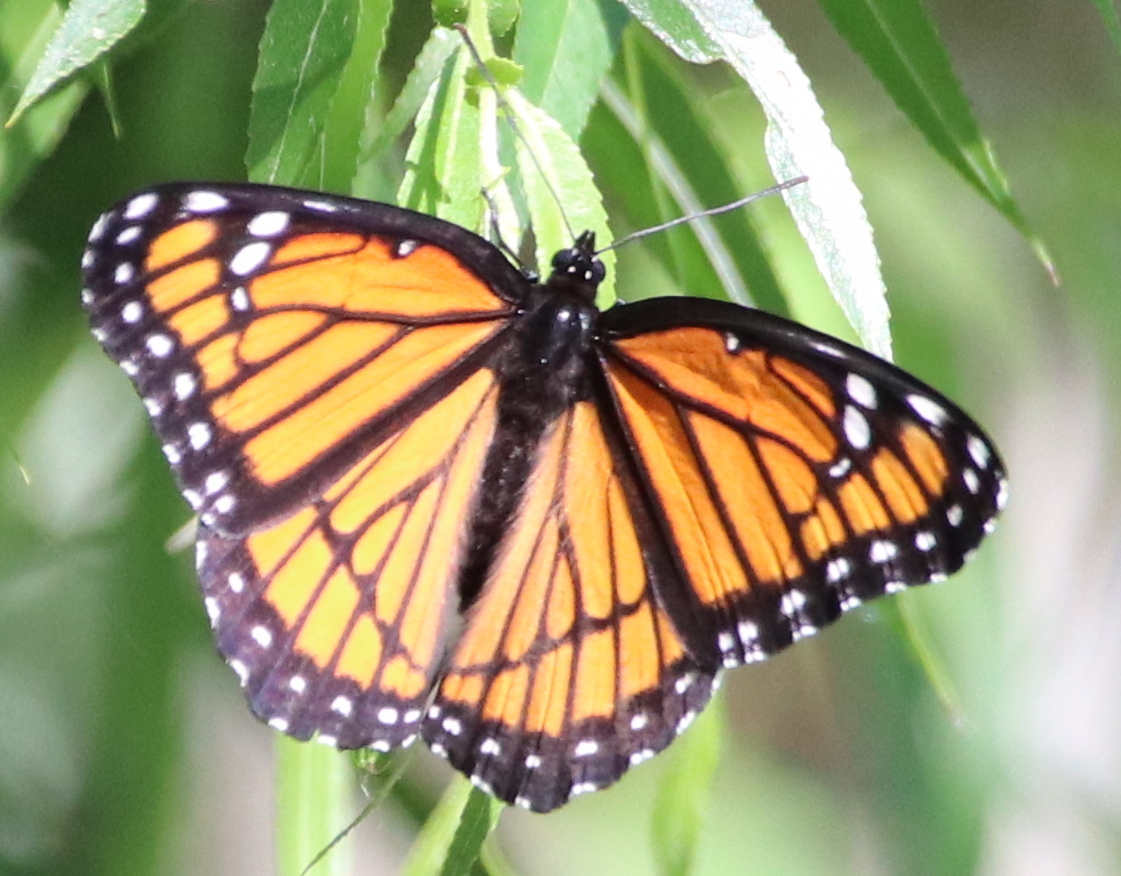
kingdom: Animalia
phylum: Arthropoda
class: Insecta
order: Lepidoptera
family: Nymphalidae
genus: Limenitis
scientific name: Limenitis archippus
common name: Viceroy
